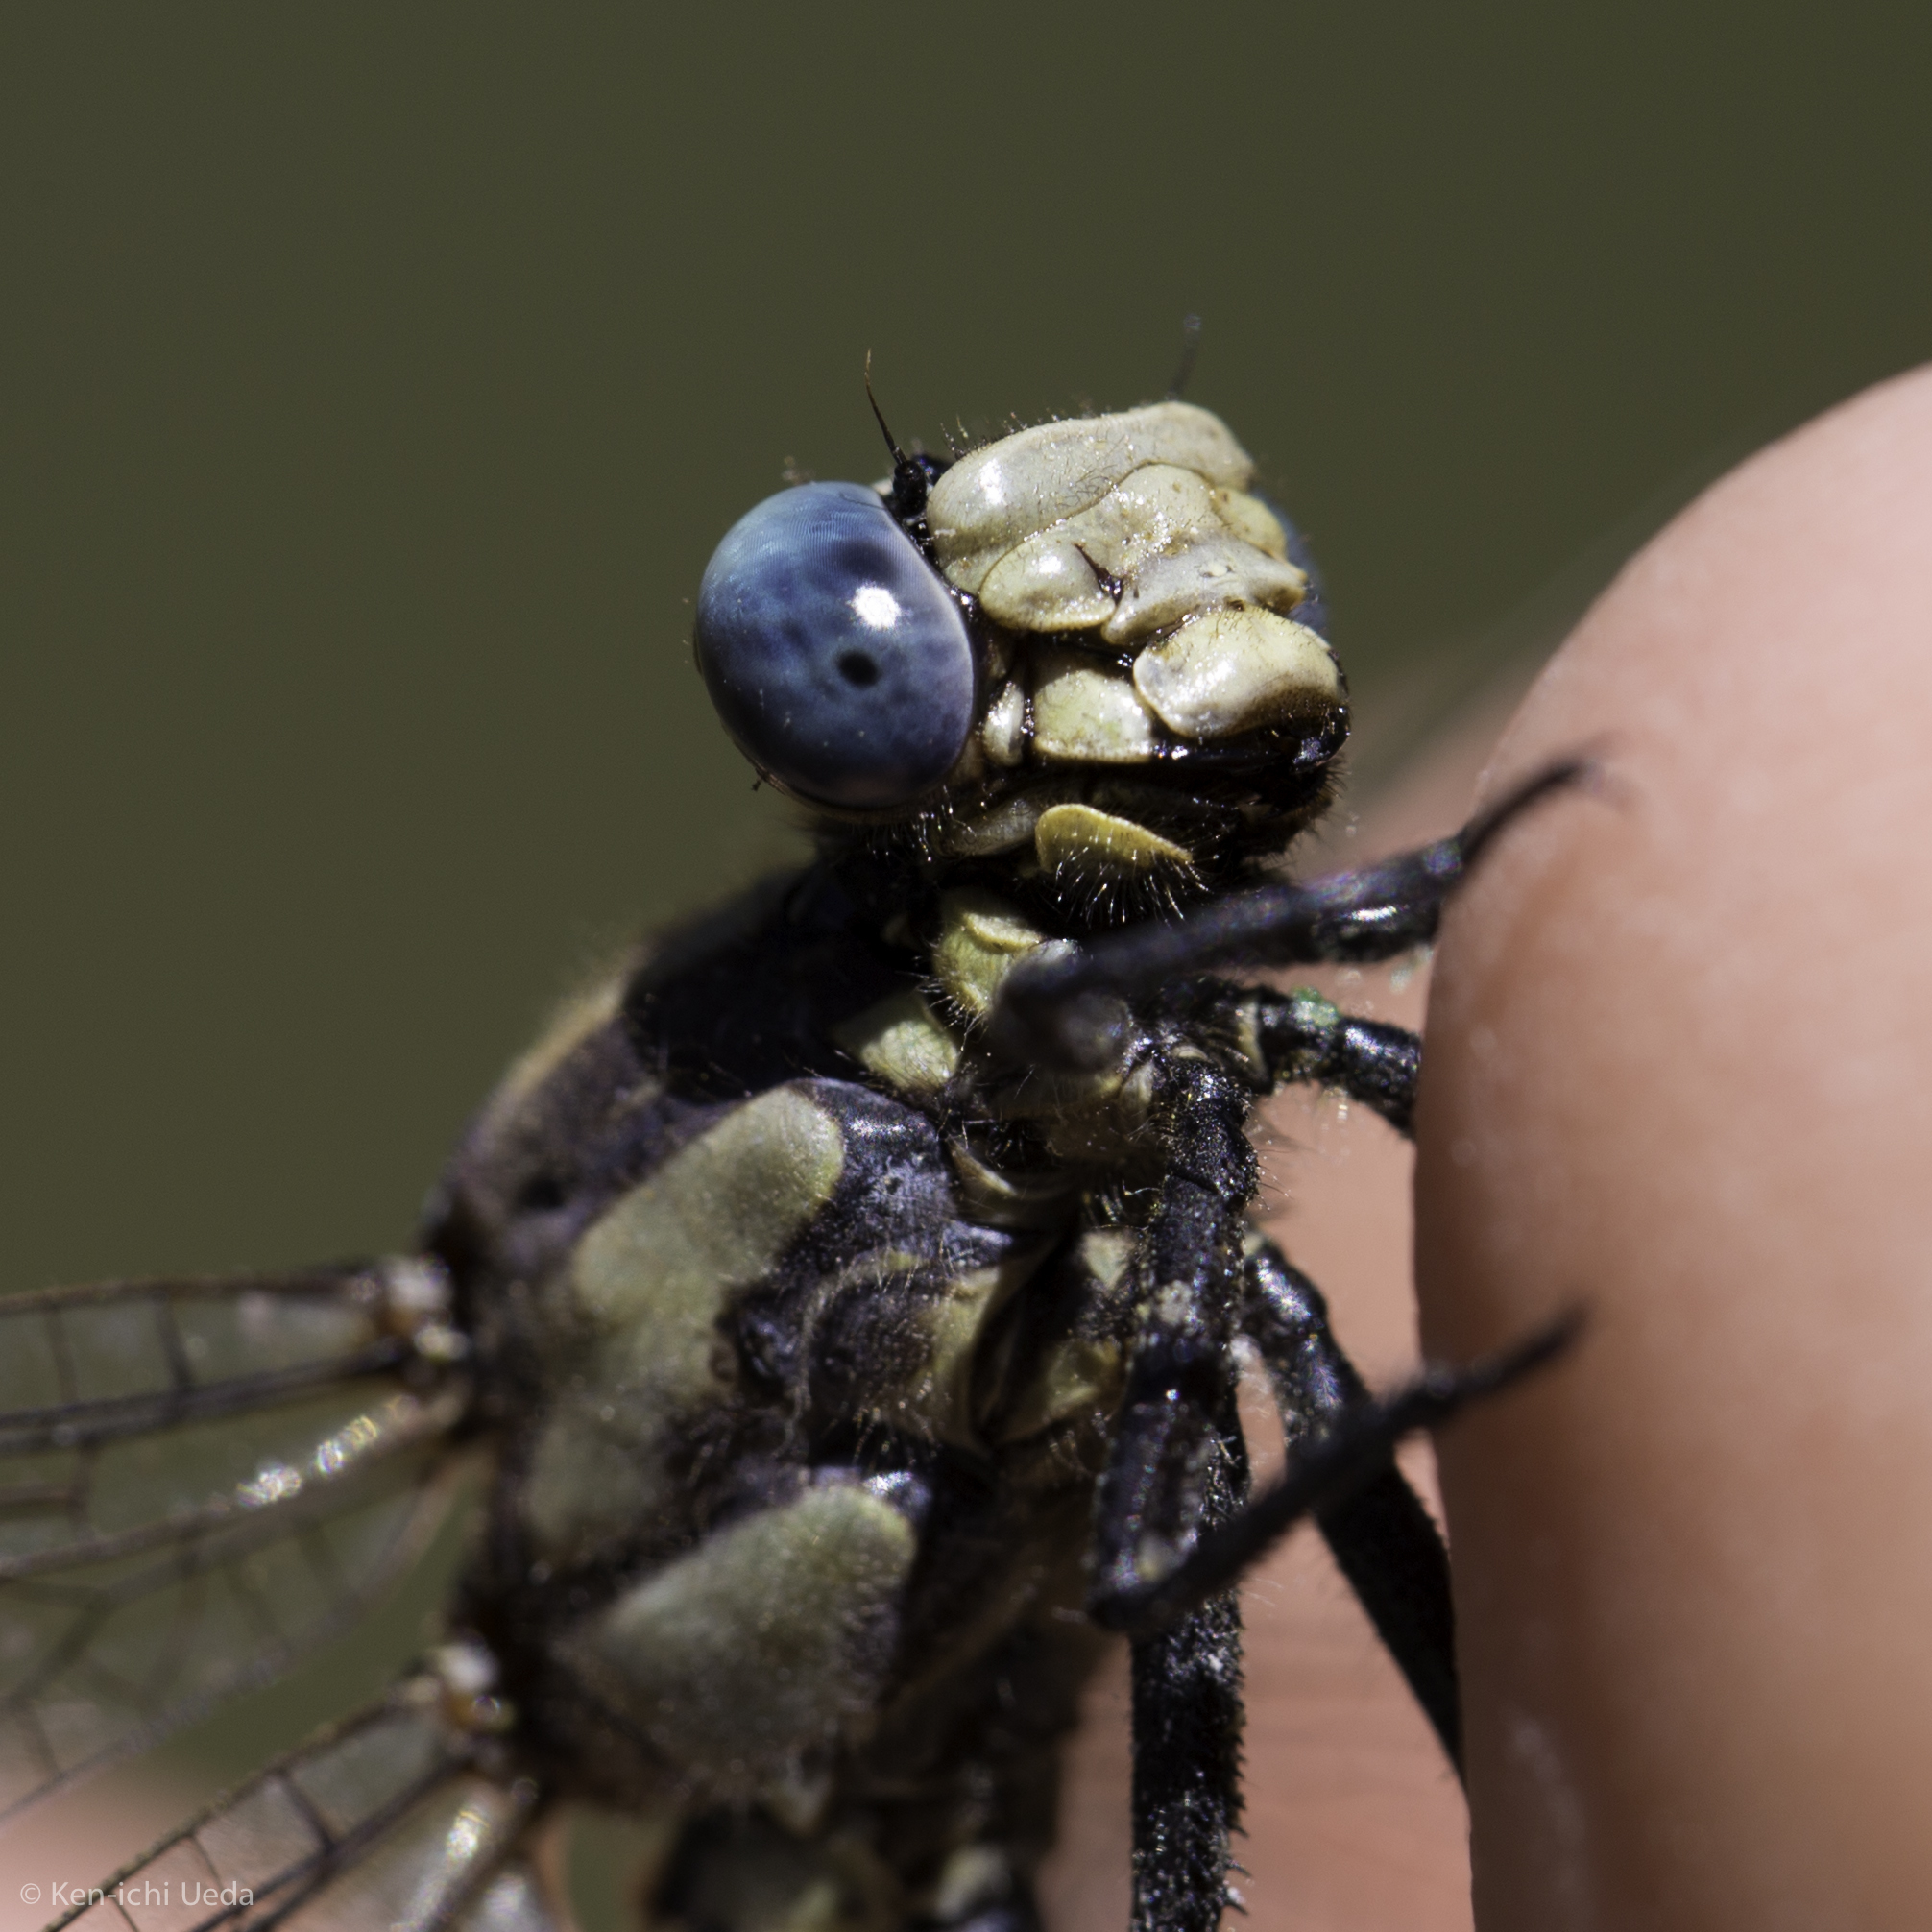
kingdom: Animalia
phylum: Arthropoda
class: Insecta
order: Odonata
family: Gomphidae
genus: Phanogomphus
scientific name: Phanogomphus kurilis
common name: Pacific clubtail
